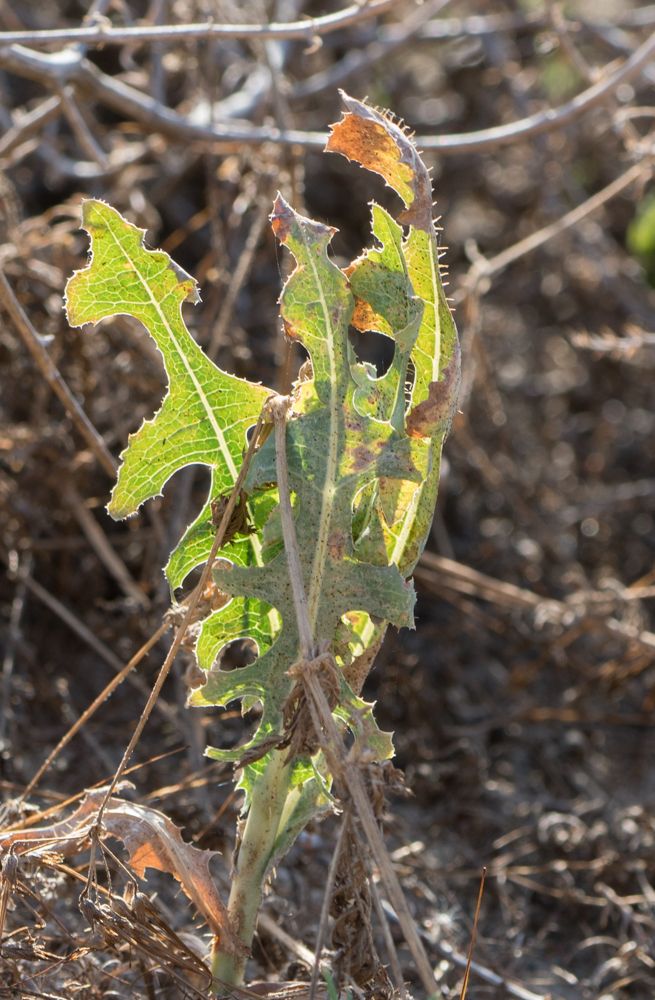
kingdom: Plantae
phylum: Tracheophyta
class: Magnoliopsida
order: Asterales
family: Asteraceae
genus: Lactuca
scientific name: Lactuca serriola
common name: Prickly lettuce
